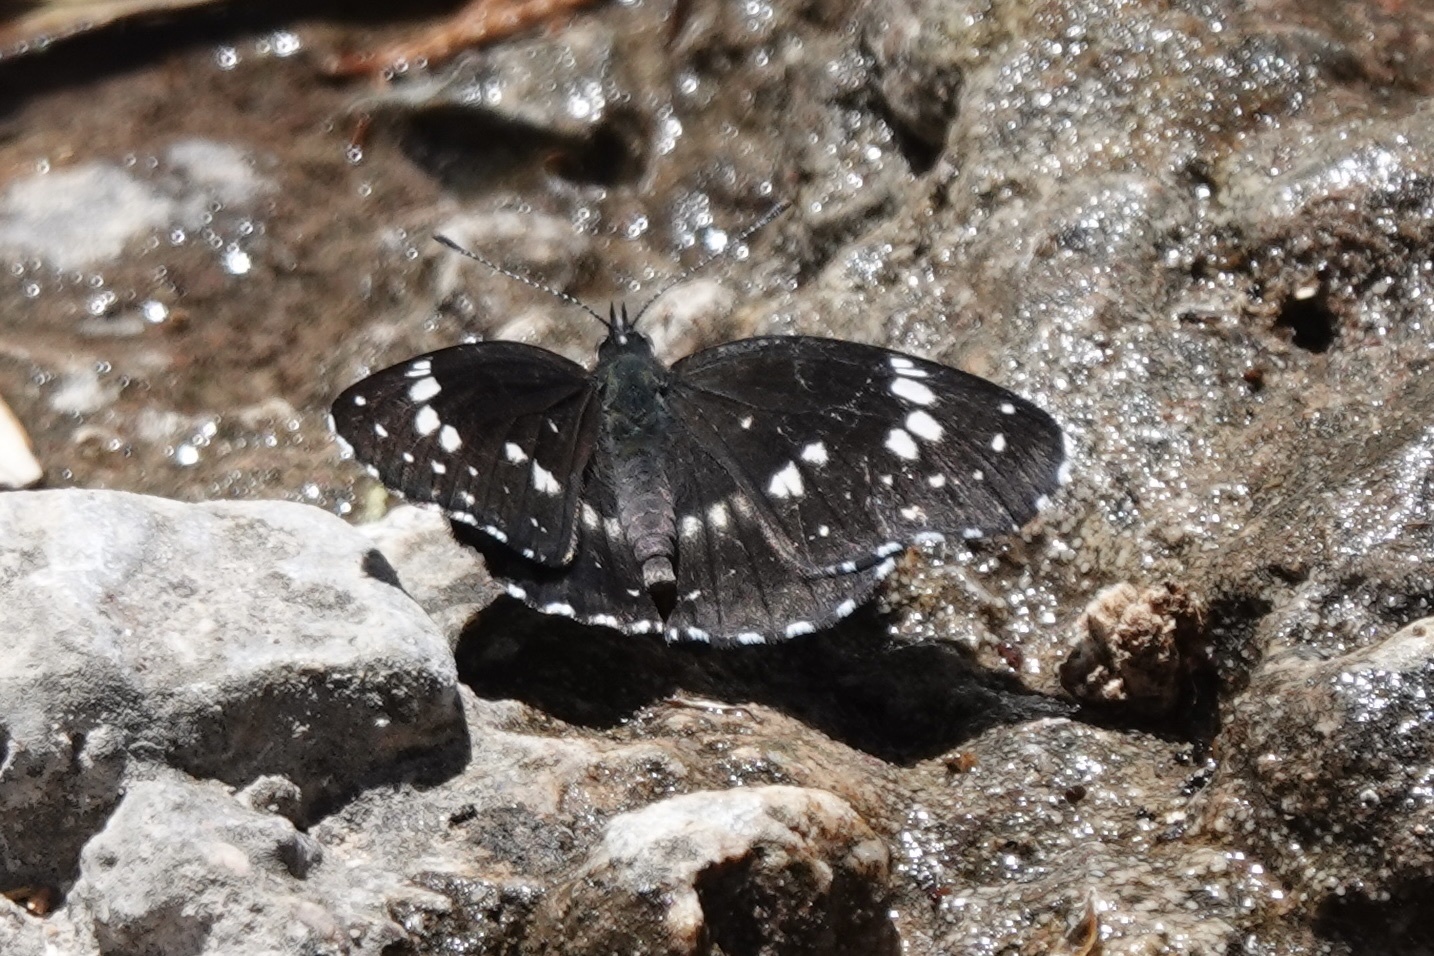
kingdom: Animalia
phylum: Arthropoda
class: Insecta
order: Lepidoptera
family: Nymphalidae
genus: Chlosyne
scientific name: Chlosyne lacinia
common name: Bordered patch
